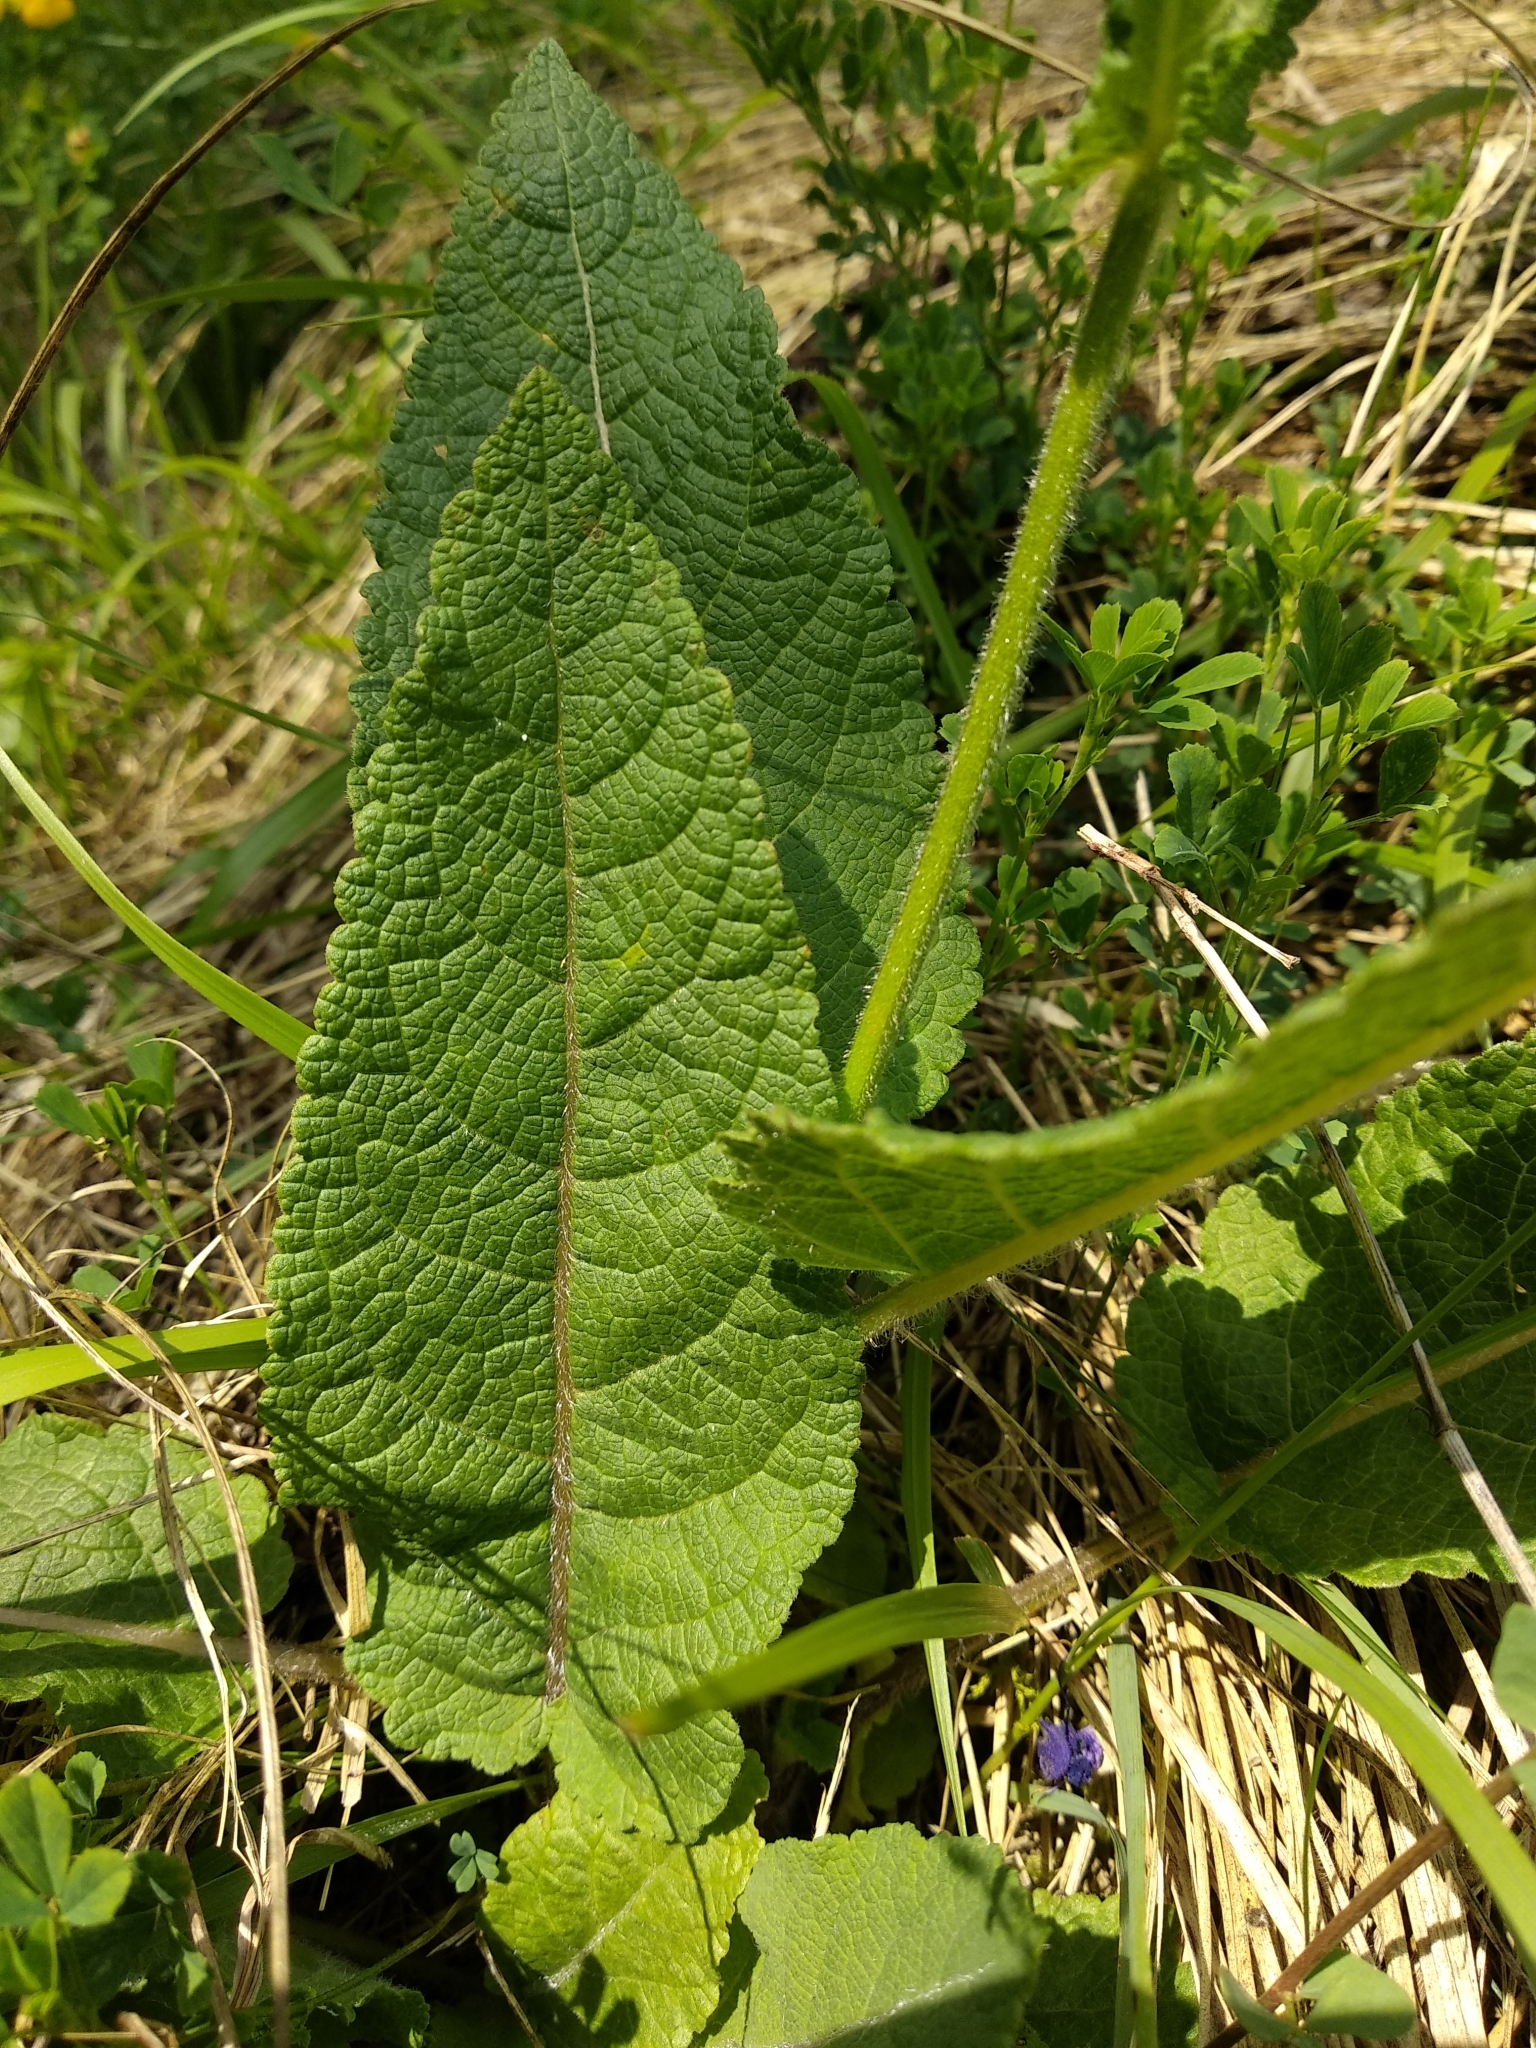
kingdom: Plantae
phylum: Tracheophyta
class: Magnoliopsida
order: Lamiales
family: Lamiaceae
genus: Salvia
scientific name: Salvia pratensis
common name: Meadow sage
